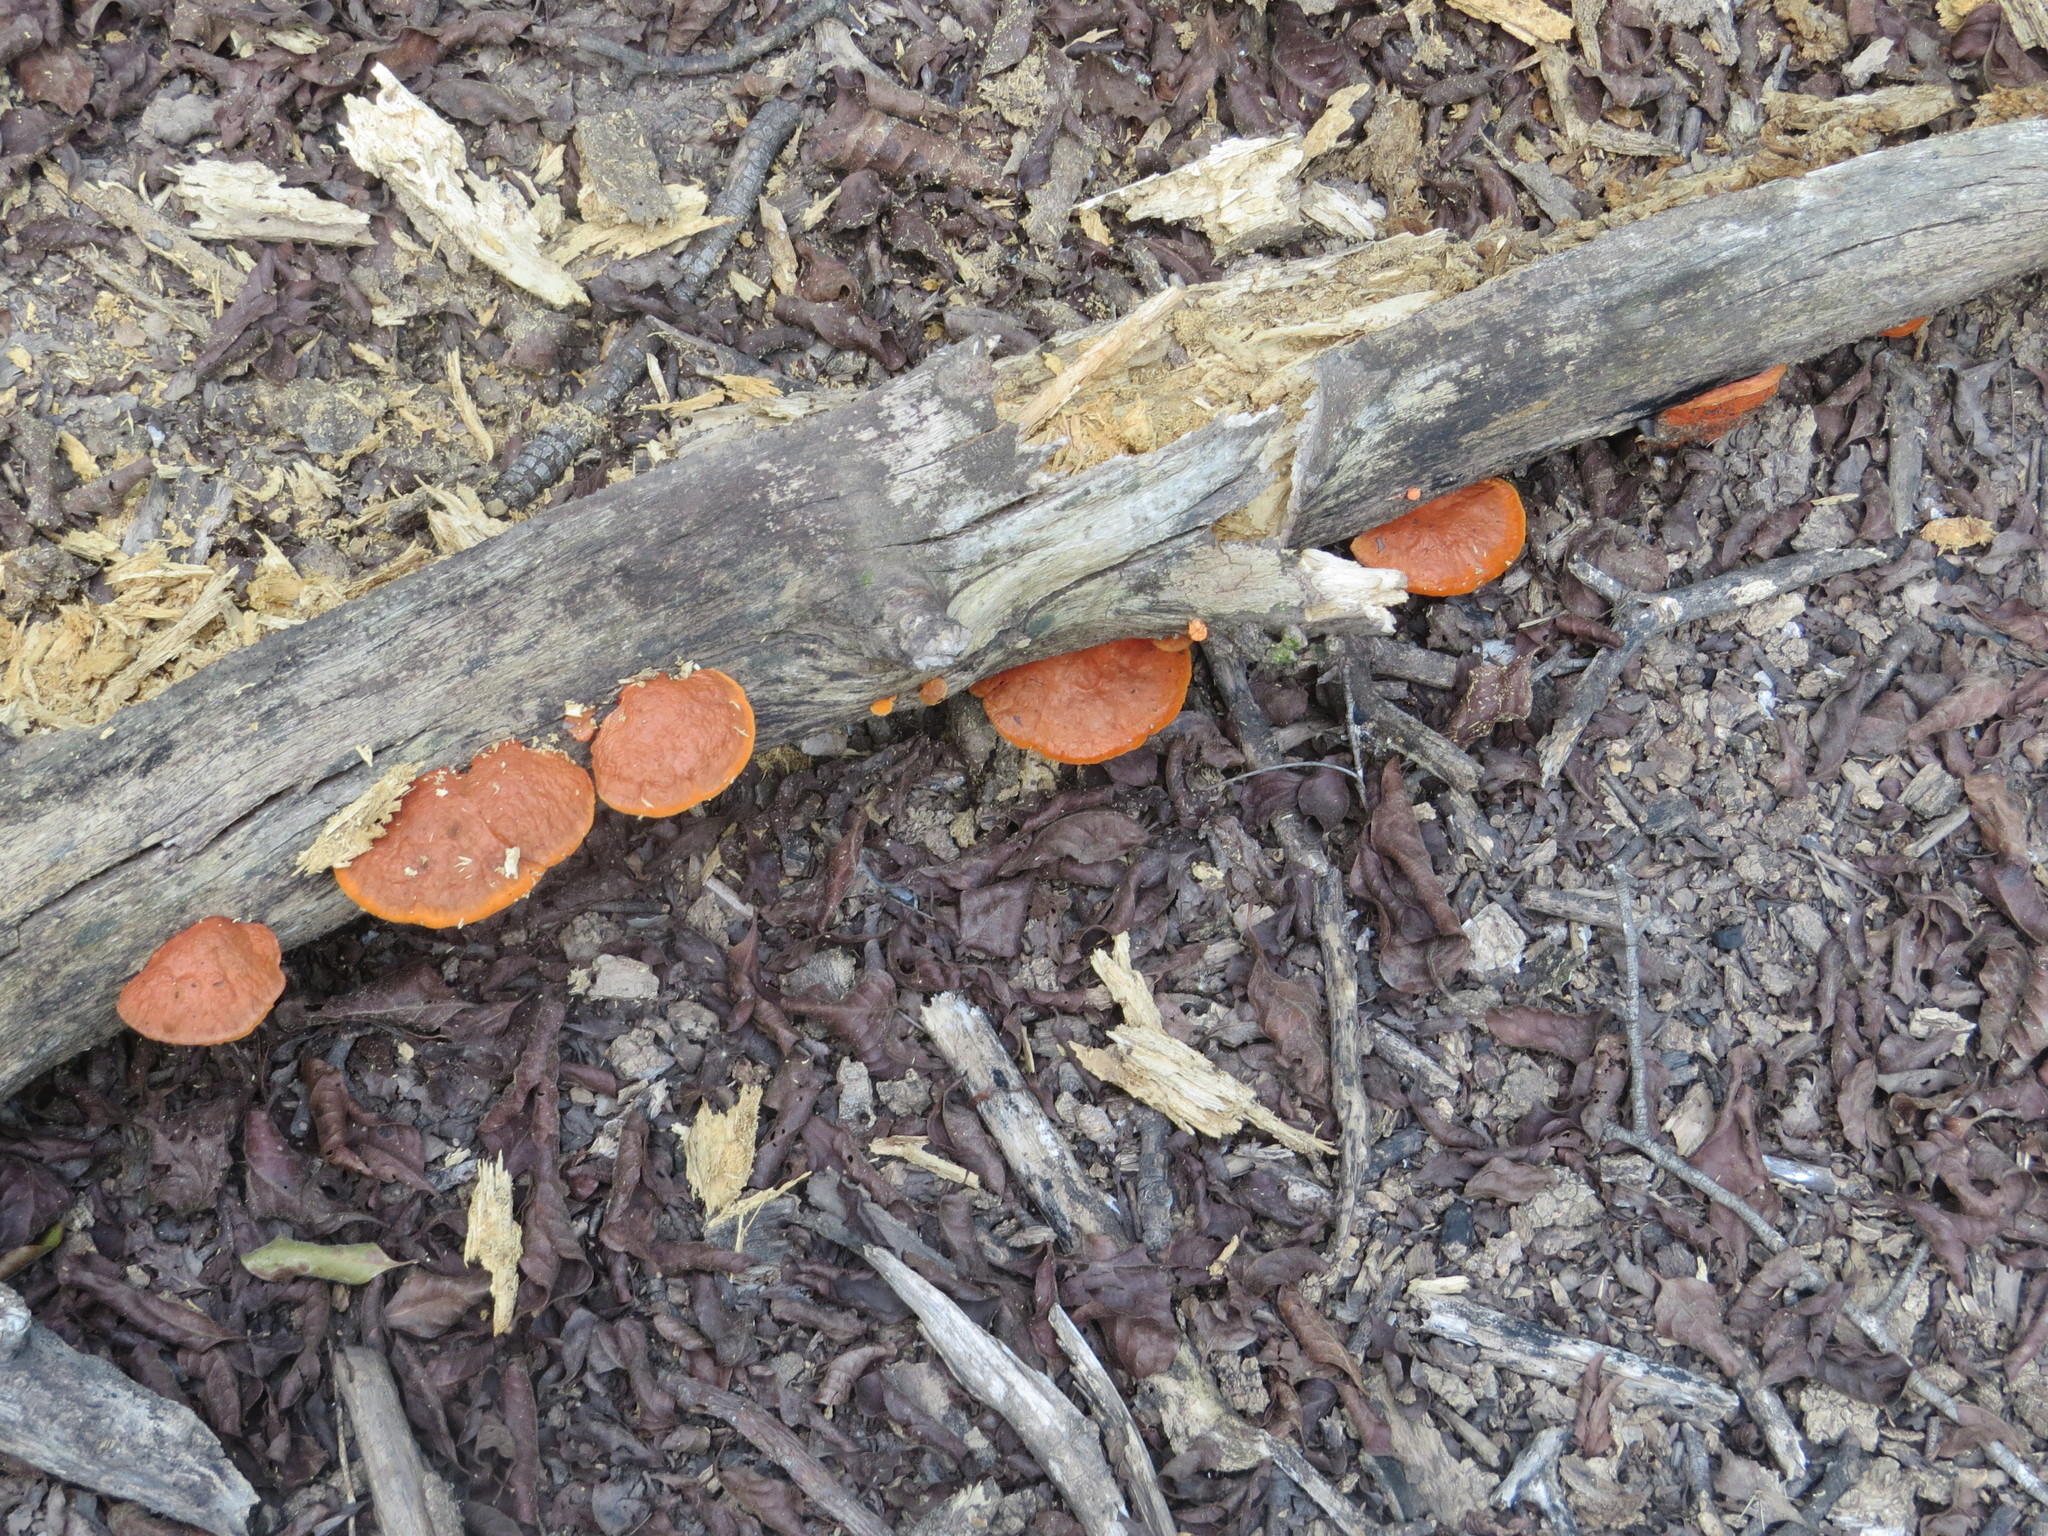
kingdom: Fungi
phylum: Basidiomycota
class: Agaricomycetes
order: Polyporales
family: Polyporaceae
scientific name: Polyporaceae
